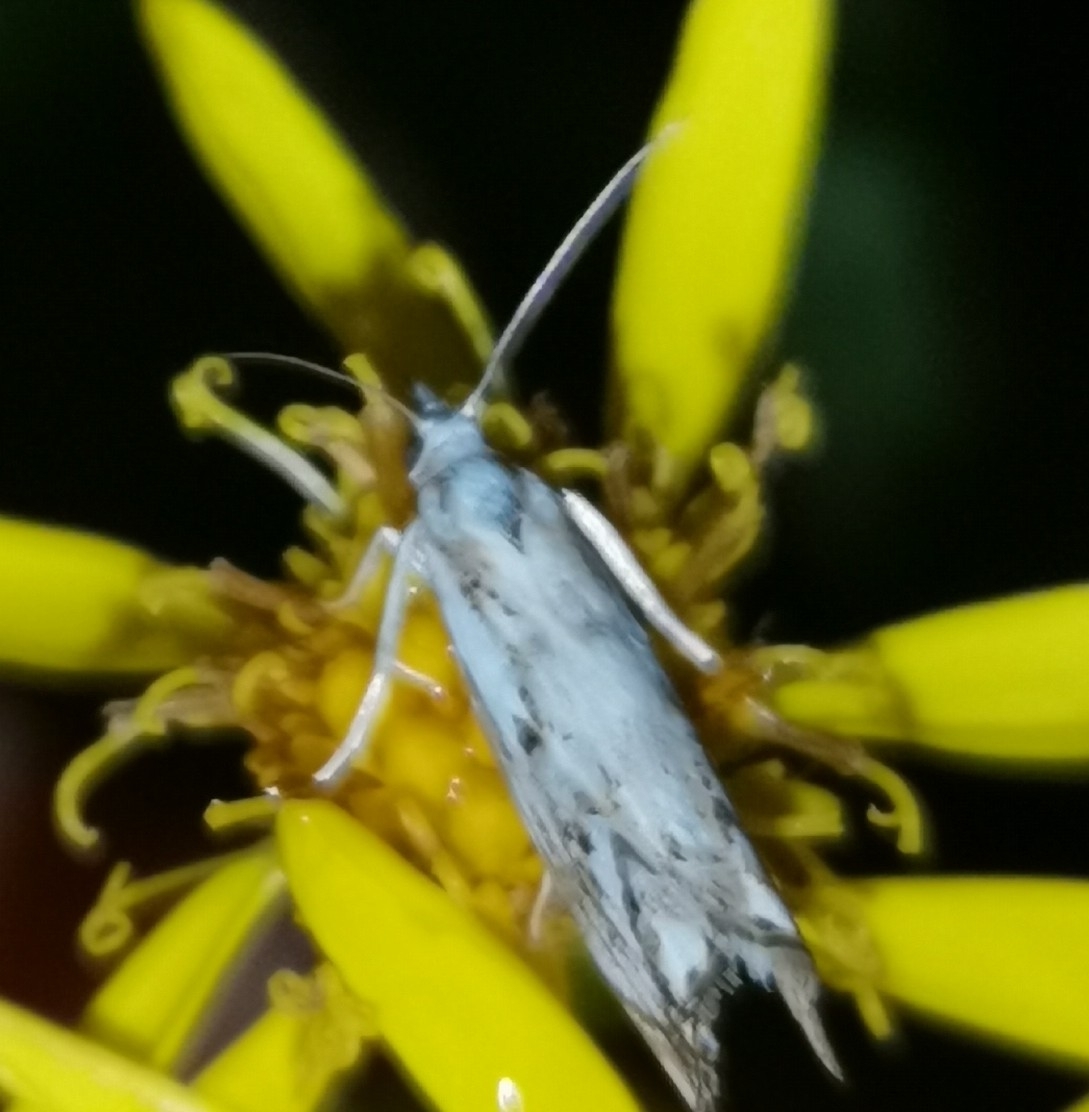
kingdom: Animalia
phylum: Arthropoda
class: Insecta
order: Lepidoptera
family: Crambidae
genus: Catoptria
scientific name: Catoptria falsella
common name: Chequered grass-veneer
